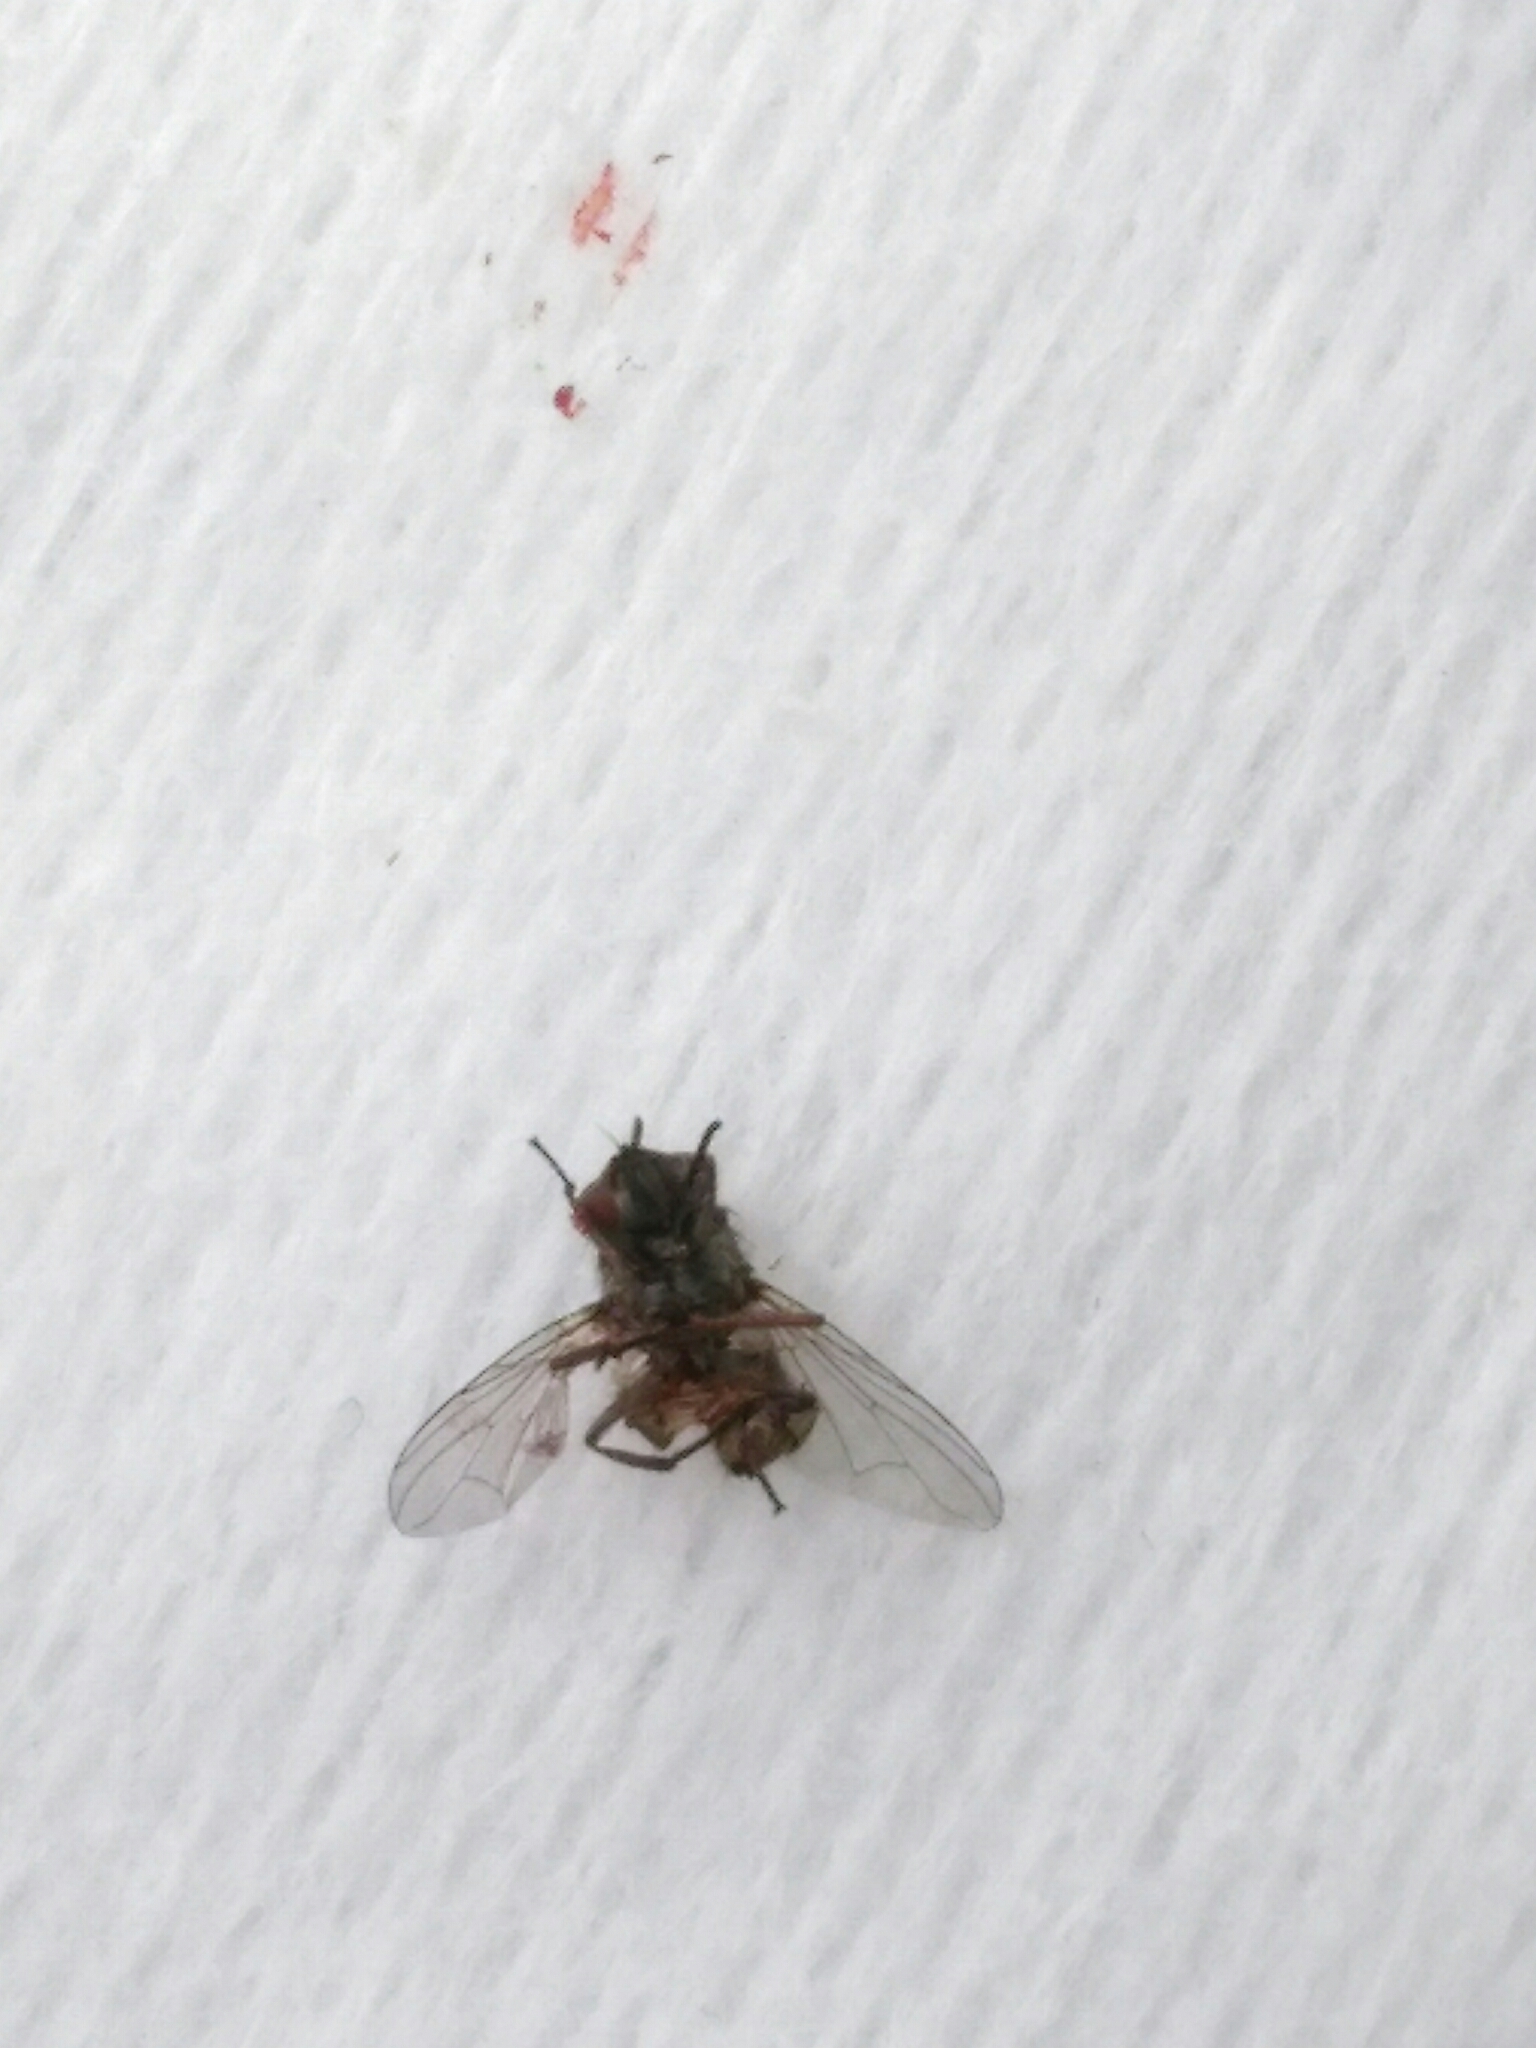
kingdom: Animalia
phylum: Arthropoda
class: Insecta
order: Diptera
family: Muscidae
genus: Stomoxys
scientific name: Stomoxys calcitrans
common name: Stable fly
